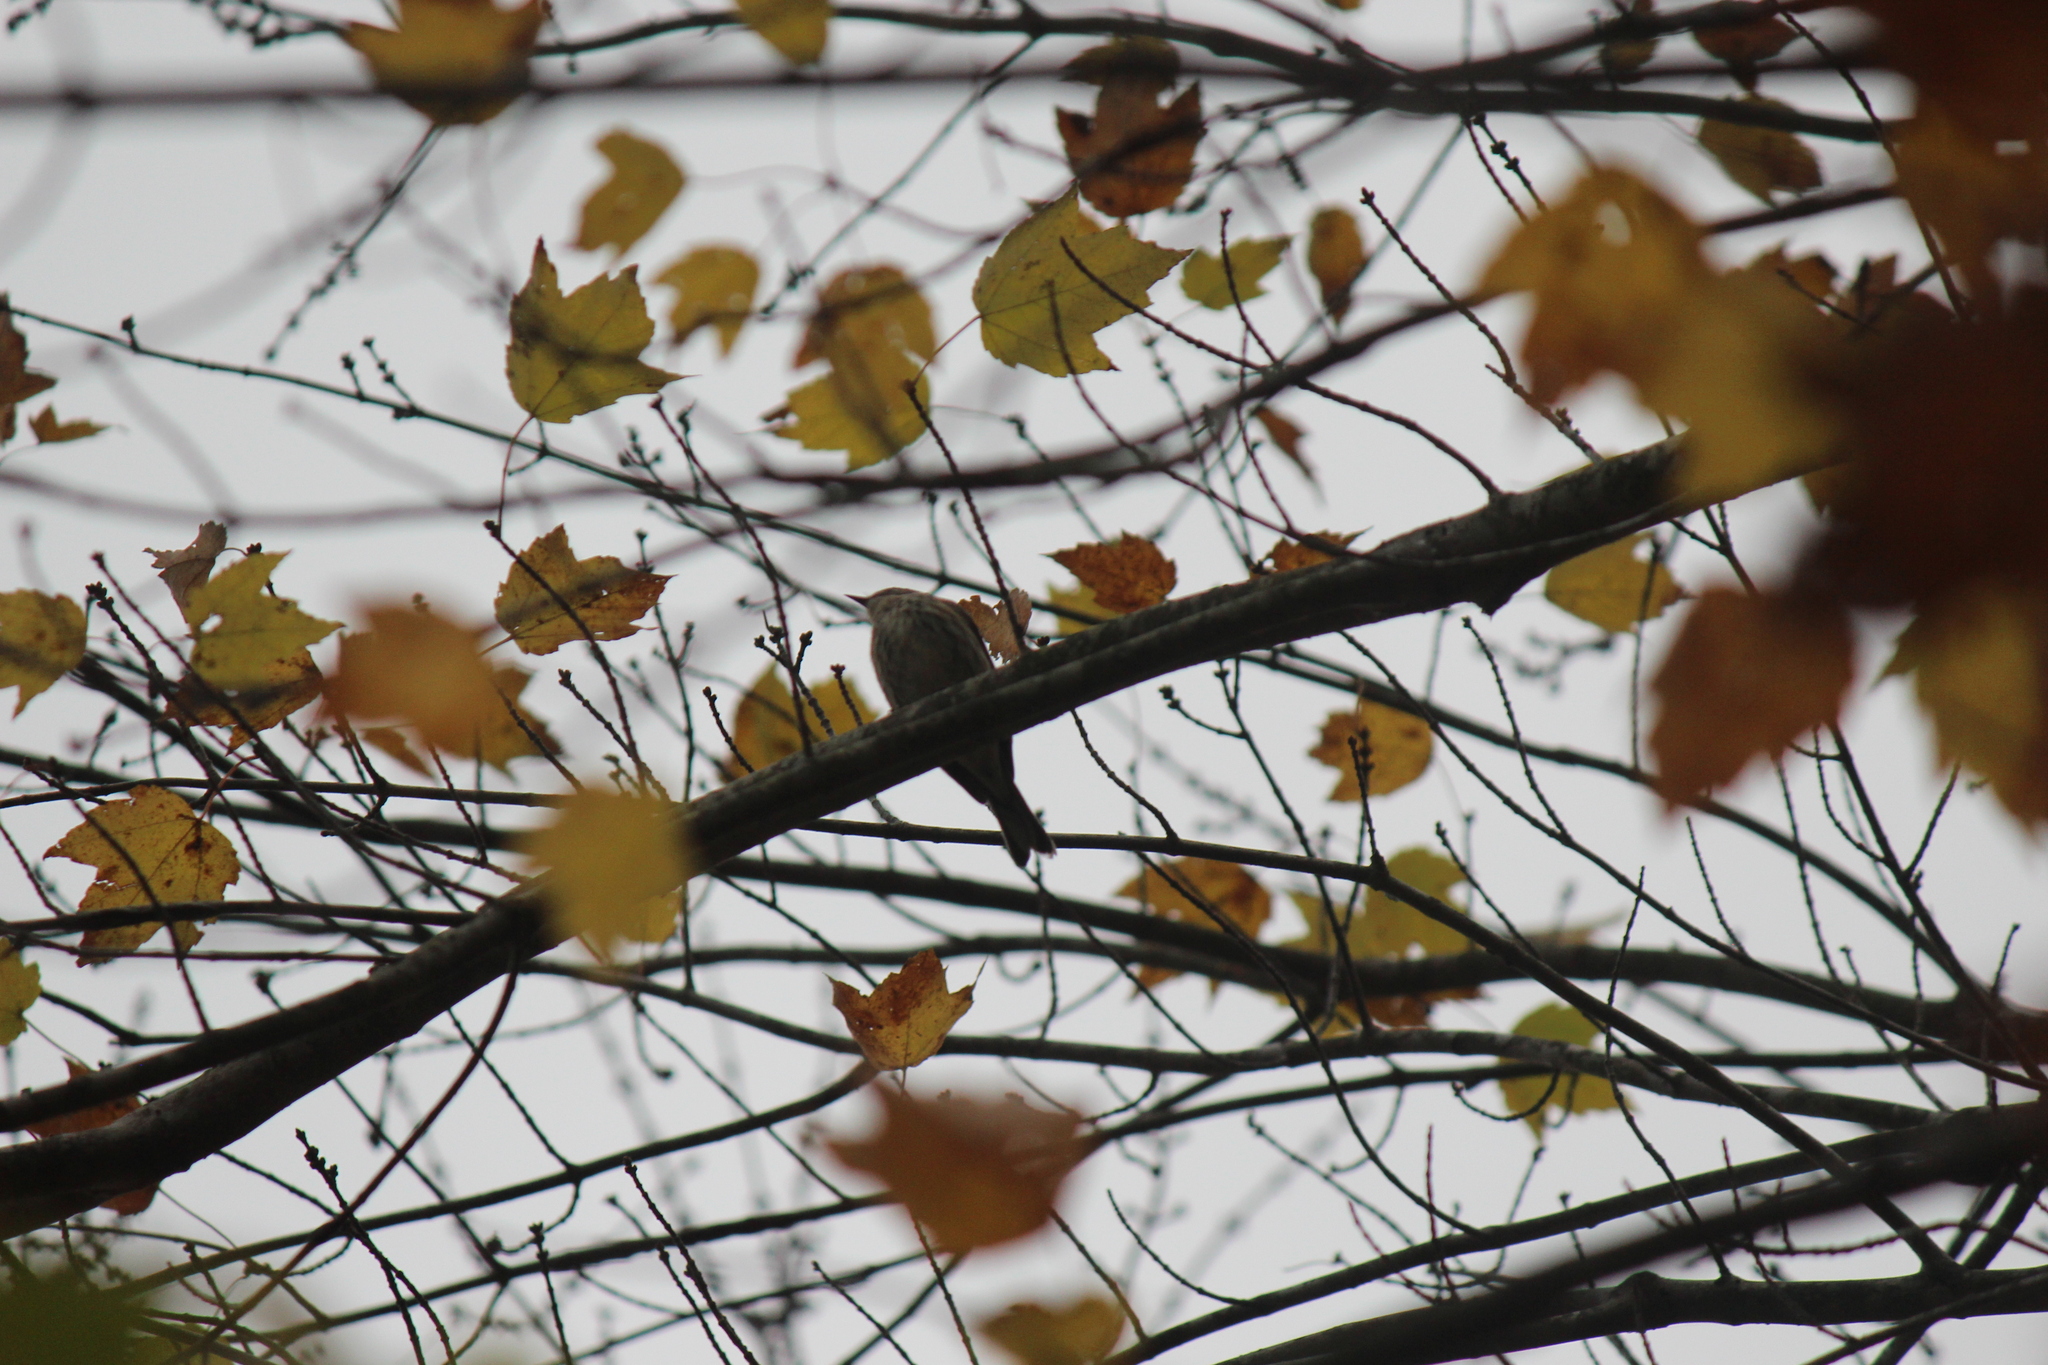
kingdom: Animalia
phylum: Chordata
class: Aves
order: Passeriformes
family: Parulidae
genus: Setophaga
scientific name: Setophaga coronata
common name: Myrtle warbler
